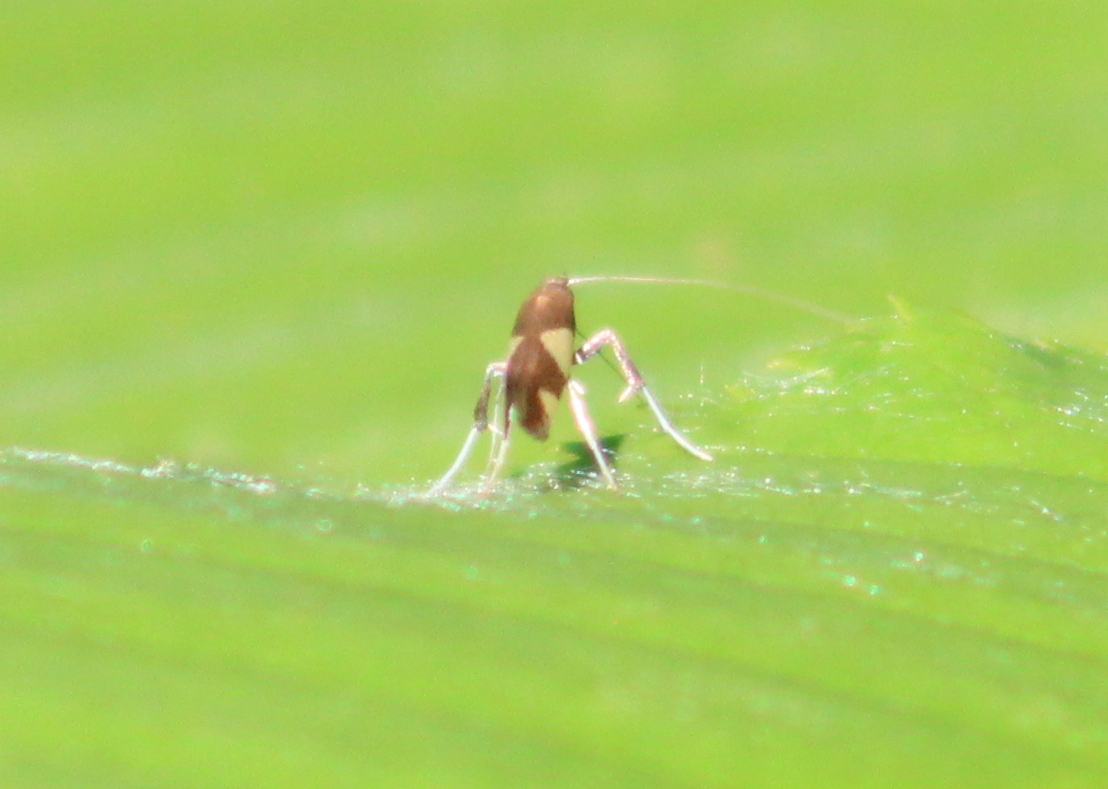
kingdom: Animalia
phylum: Arthropoda
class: Insecta
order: Lepidoptera
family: Gracillariidae
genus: Caloptilia
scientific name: Caloptilia bimaculatella
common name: Maple caloptilia moth
